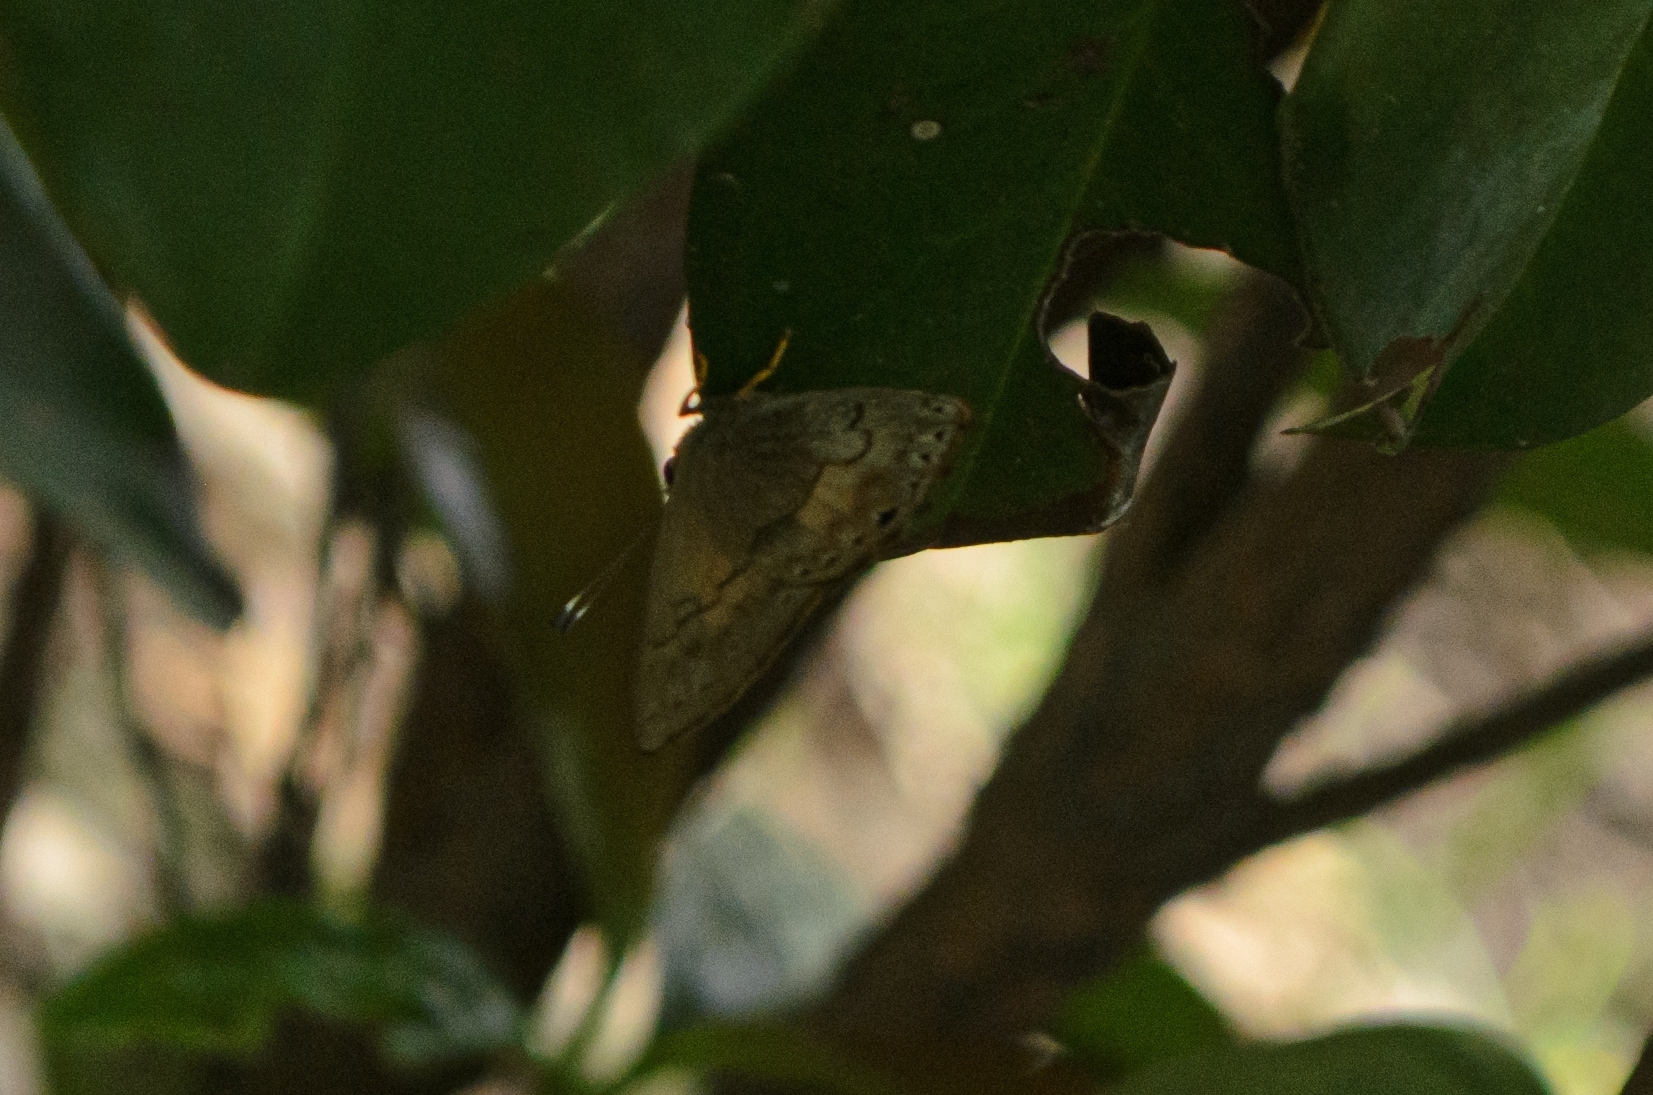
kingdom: Animalia
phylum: Arthropoda
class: Insecta
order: Lepidoptera
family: Lycaenidae
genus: Euselasia
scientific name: Euselasia eucerus
